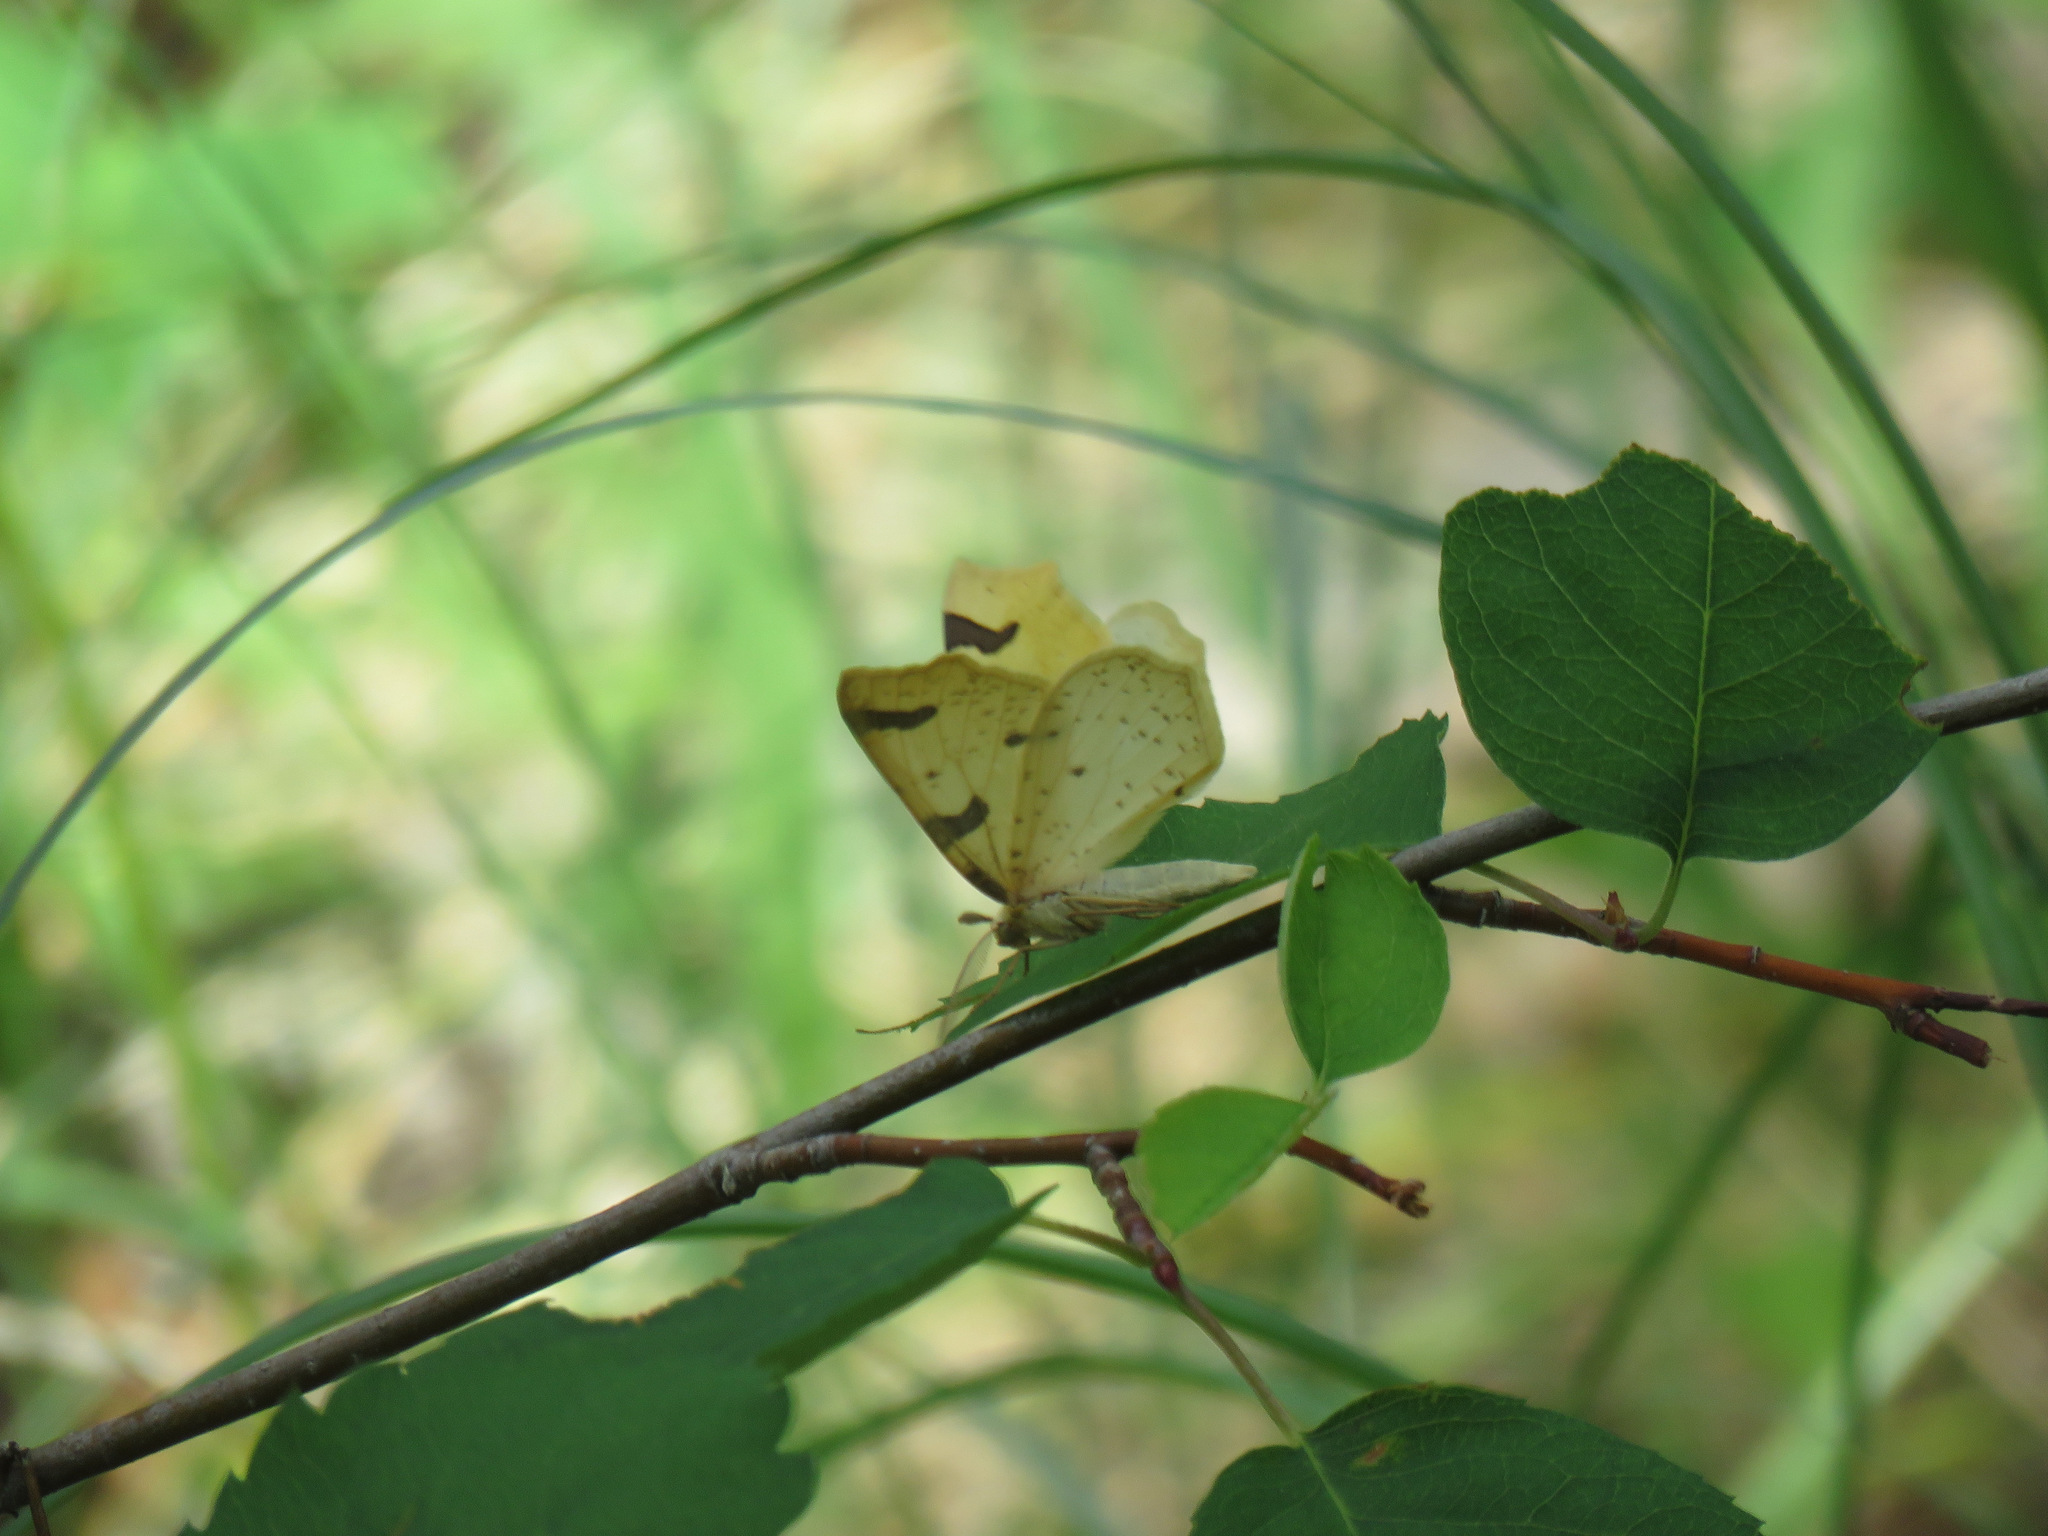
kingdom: Animalia
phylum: Arthropoda
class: Insecta
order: Lepidoptera
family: Geometridae
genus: Neoterpes
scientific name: Neoterpes trianguliferata
